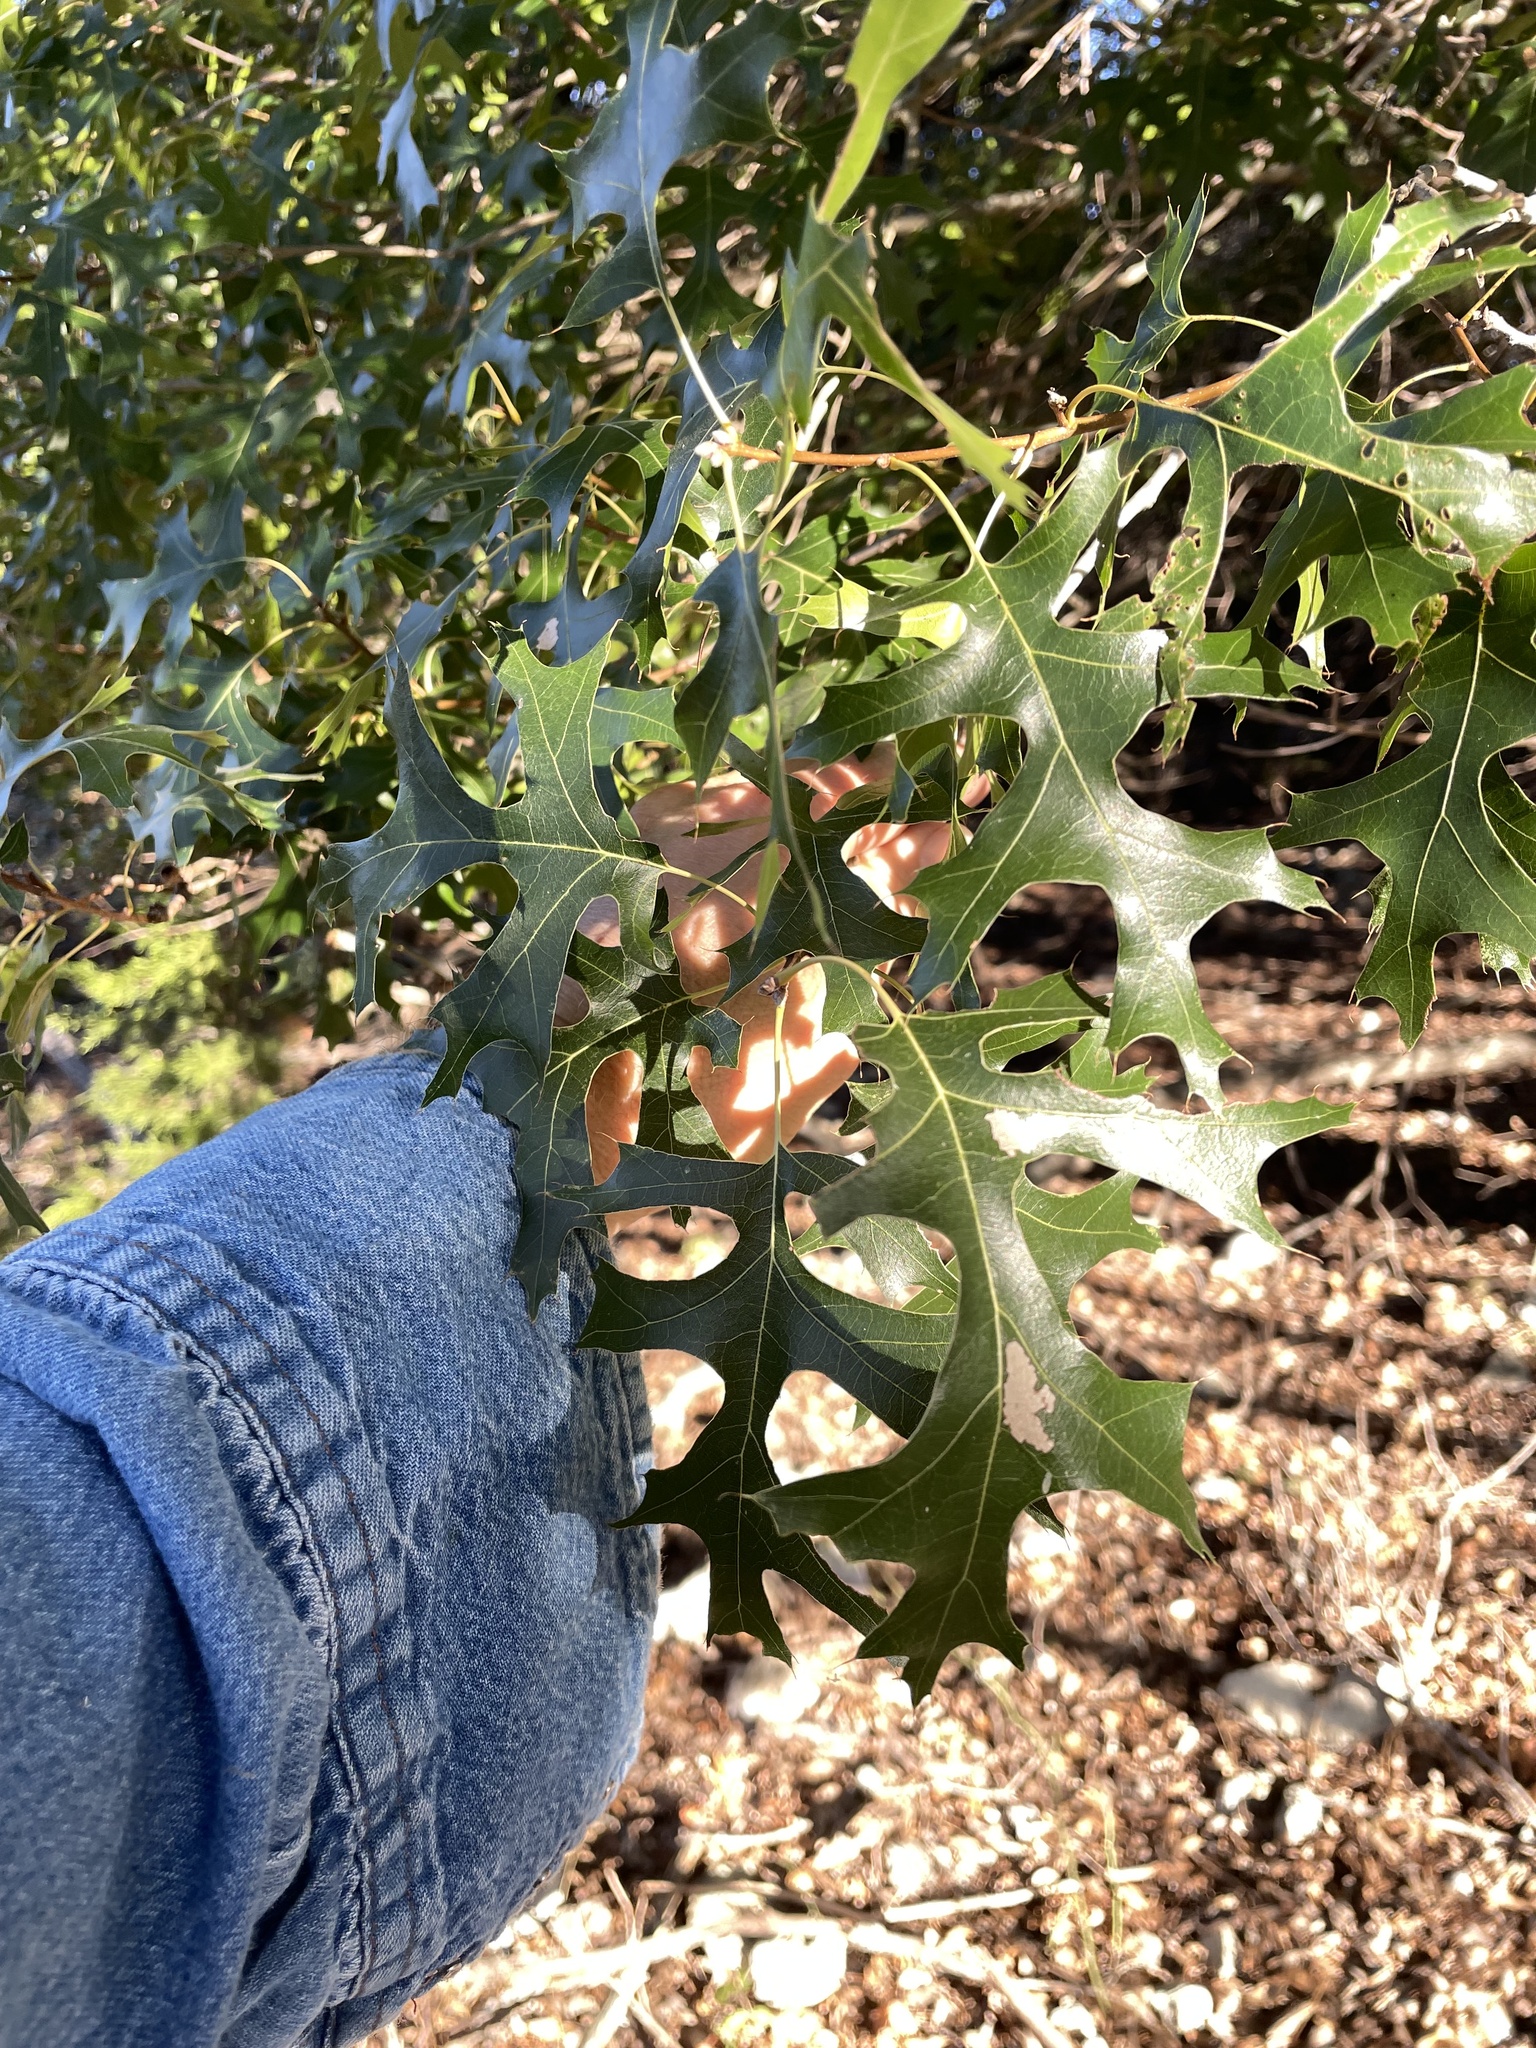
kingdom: Plantae
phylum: Tracheophyta
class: Magnoliopsida
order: Fagales
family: Fagaceae
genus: Quercus
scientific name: Quercus buckleyi
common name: Buckley oak
